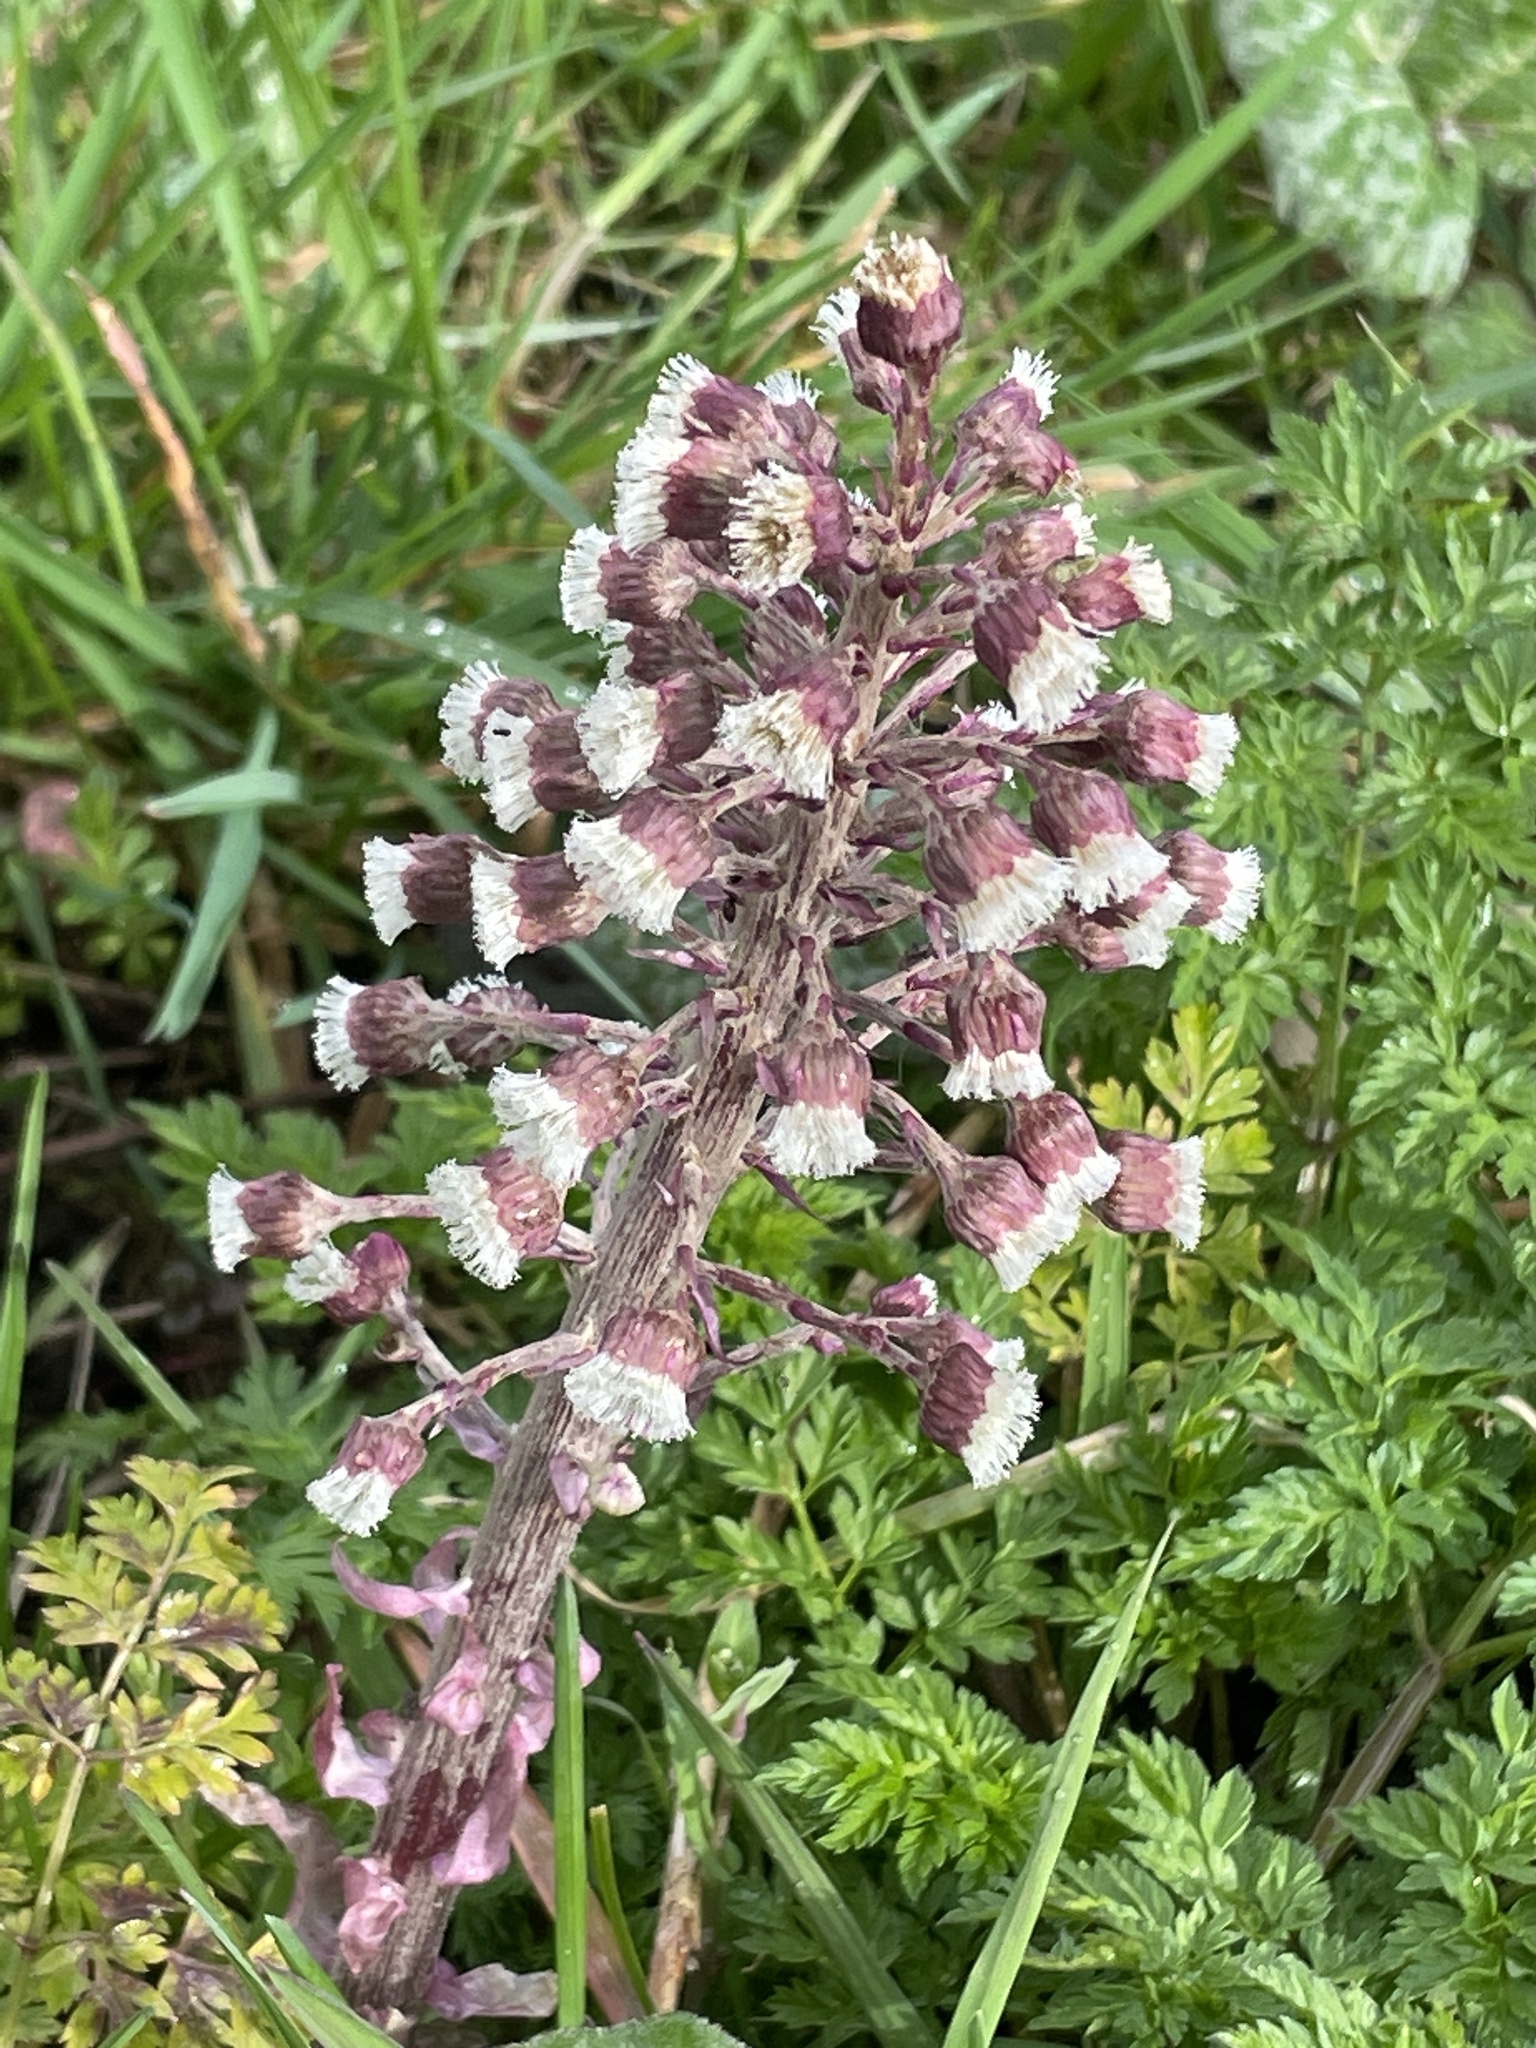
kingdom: Plantae
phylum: Tracheophyta
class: Magnoliopsida
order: Asterales
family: Asteraceae
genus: Petasites
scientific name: Petasites hybridus
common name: Butterbur
